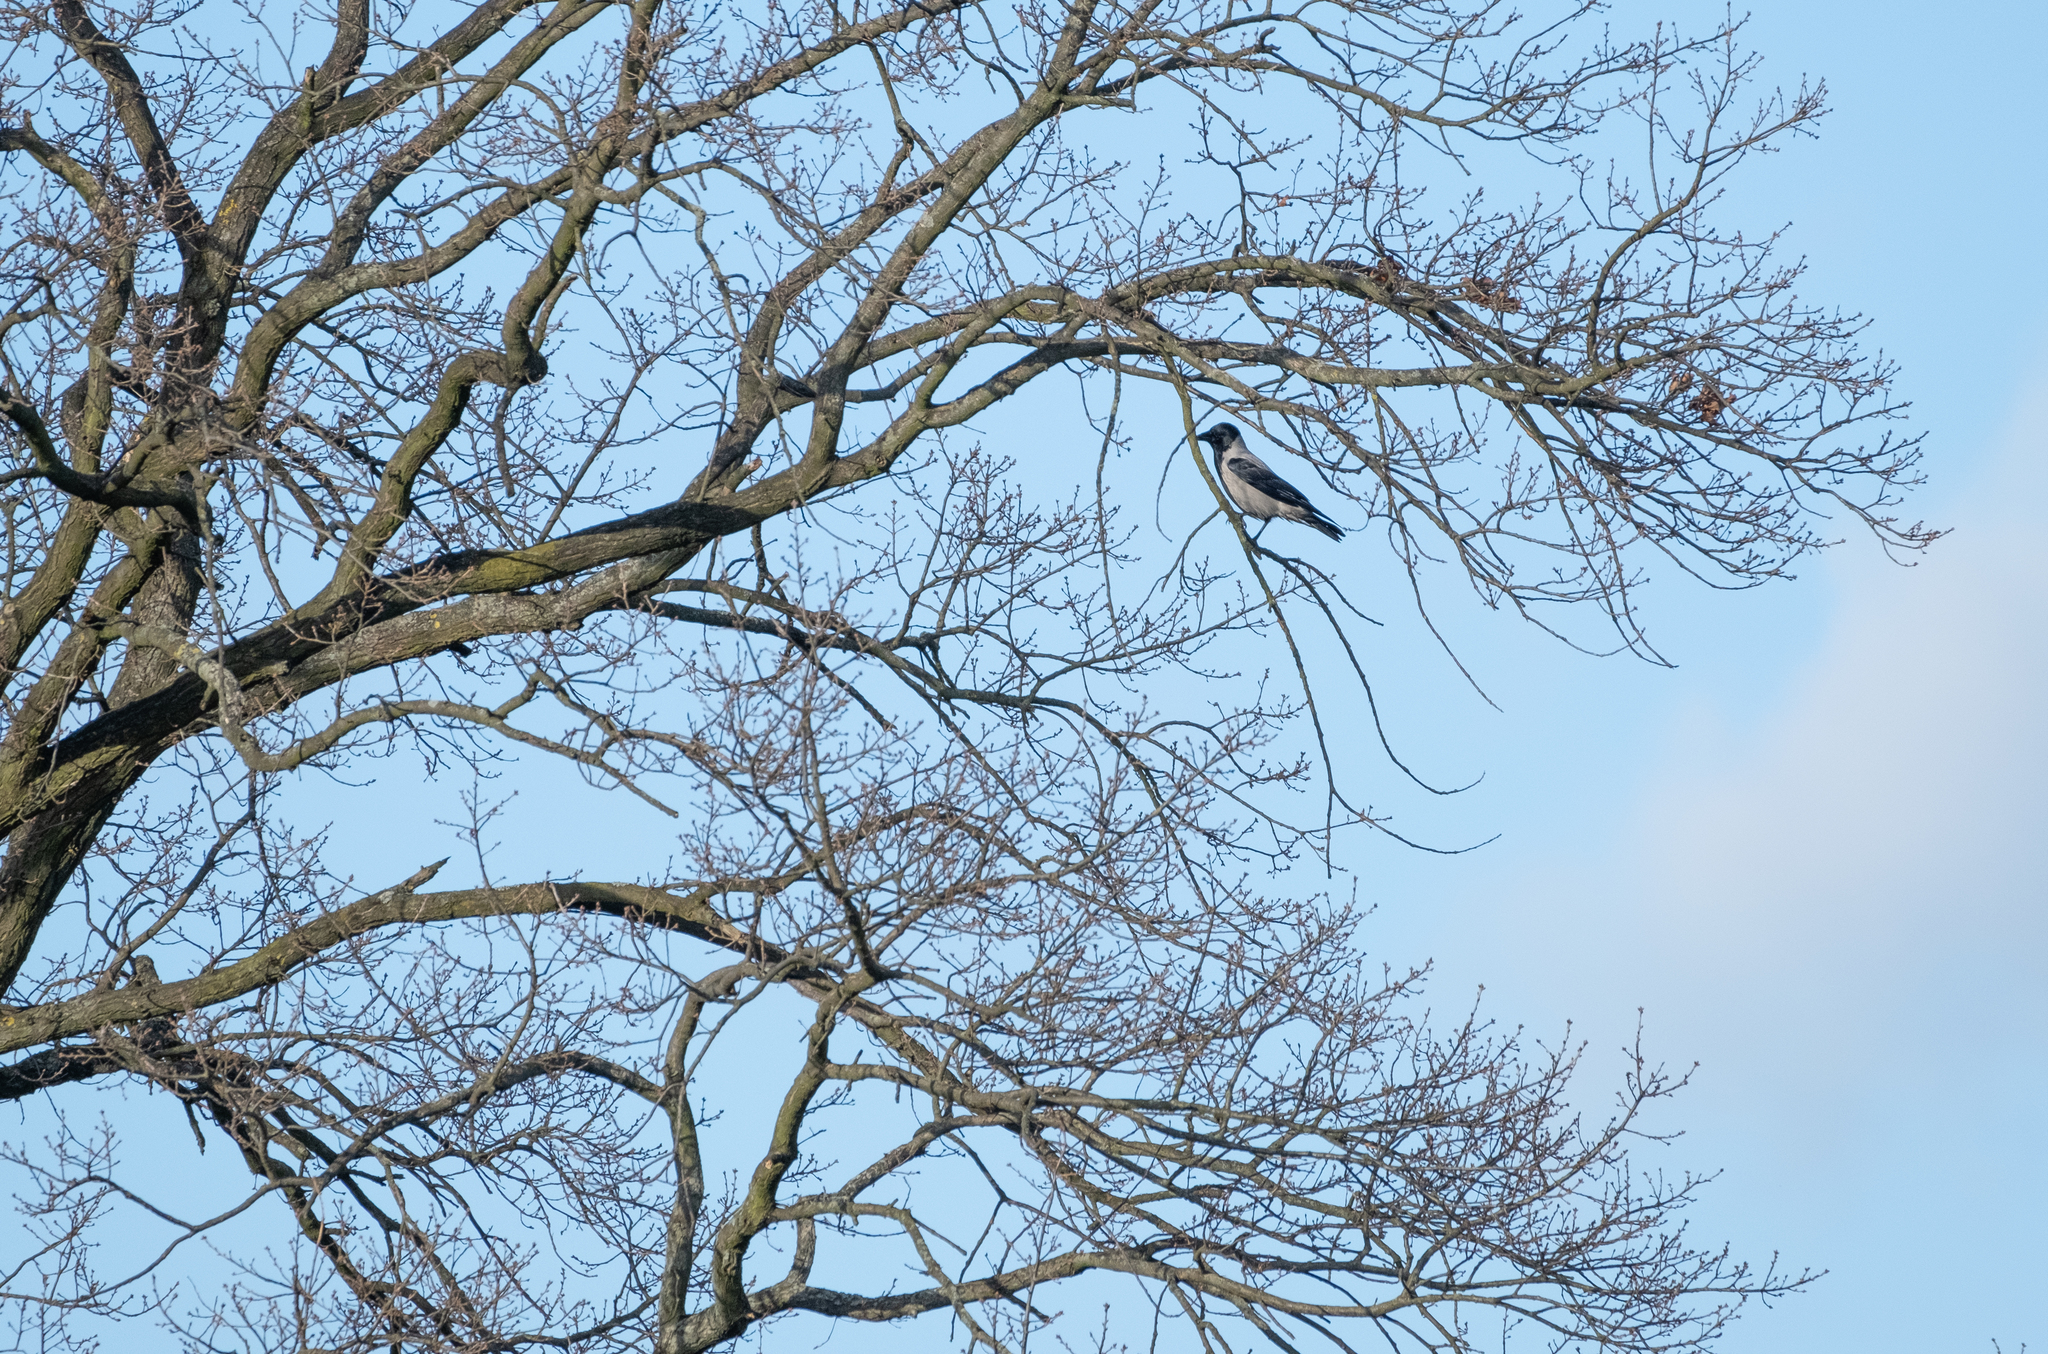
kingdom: Animalia
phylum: Chordata
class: Aves
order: Passeriformes
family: Corvidae
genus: Corvus
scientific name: Corvus cornix
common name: Hooded crow
